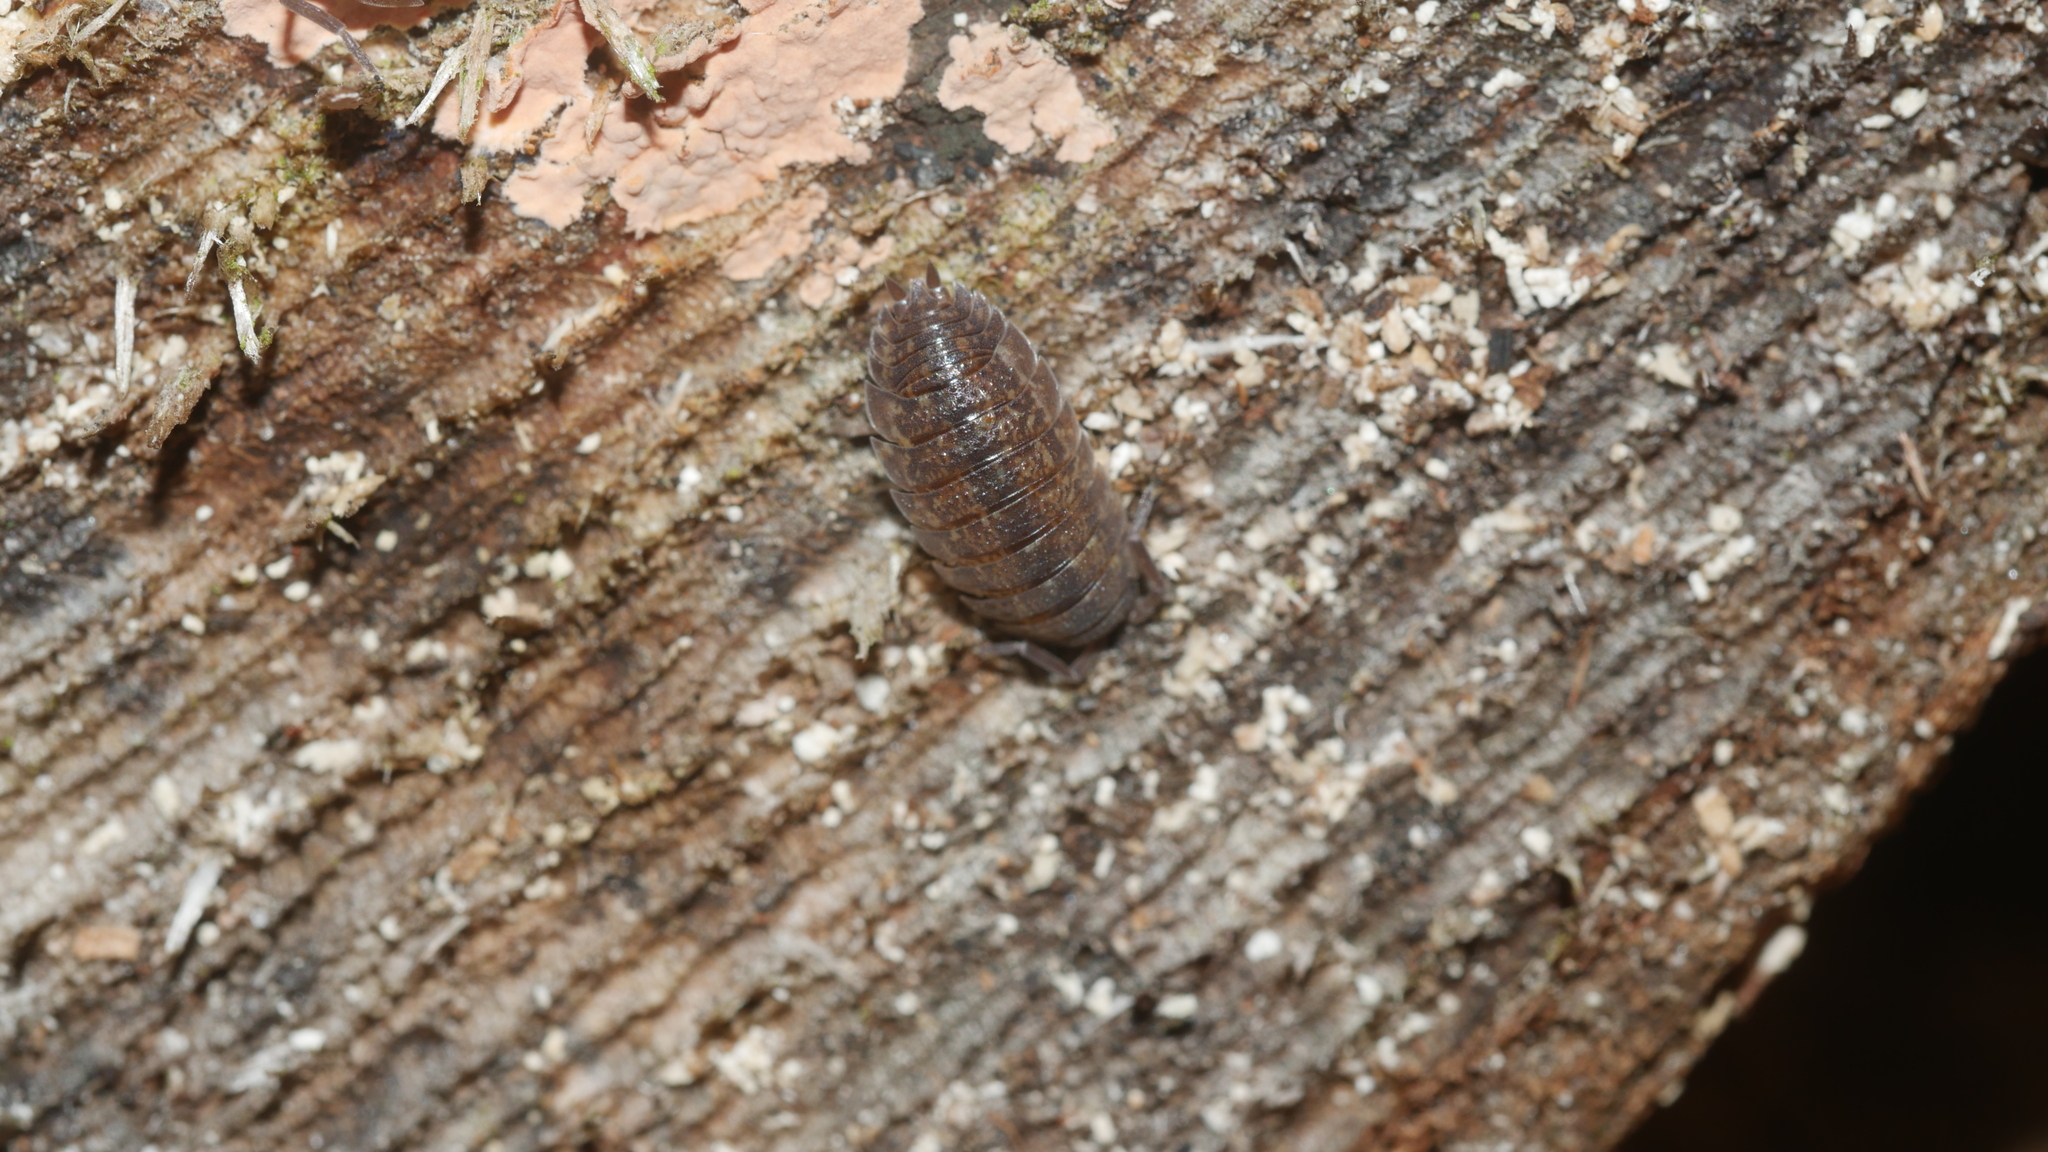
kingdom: Animalia
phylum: Arthropoda
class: Malacostraca
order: Isopoda
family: Porcellionidae
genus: Porcellio
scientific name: Porcellio scaber
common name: Common rough woodlouse
